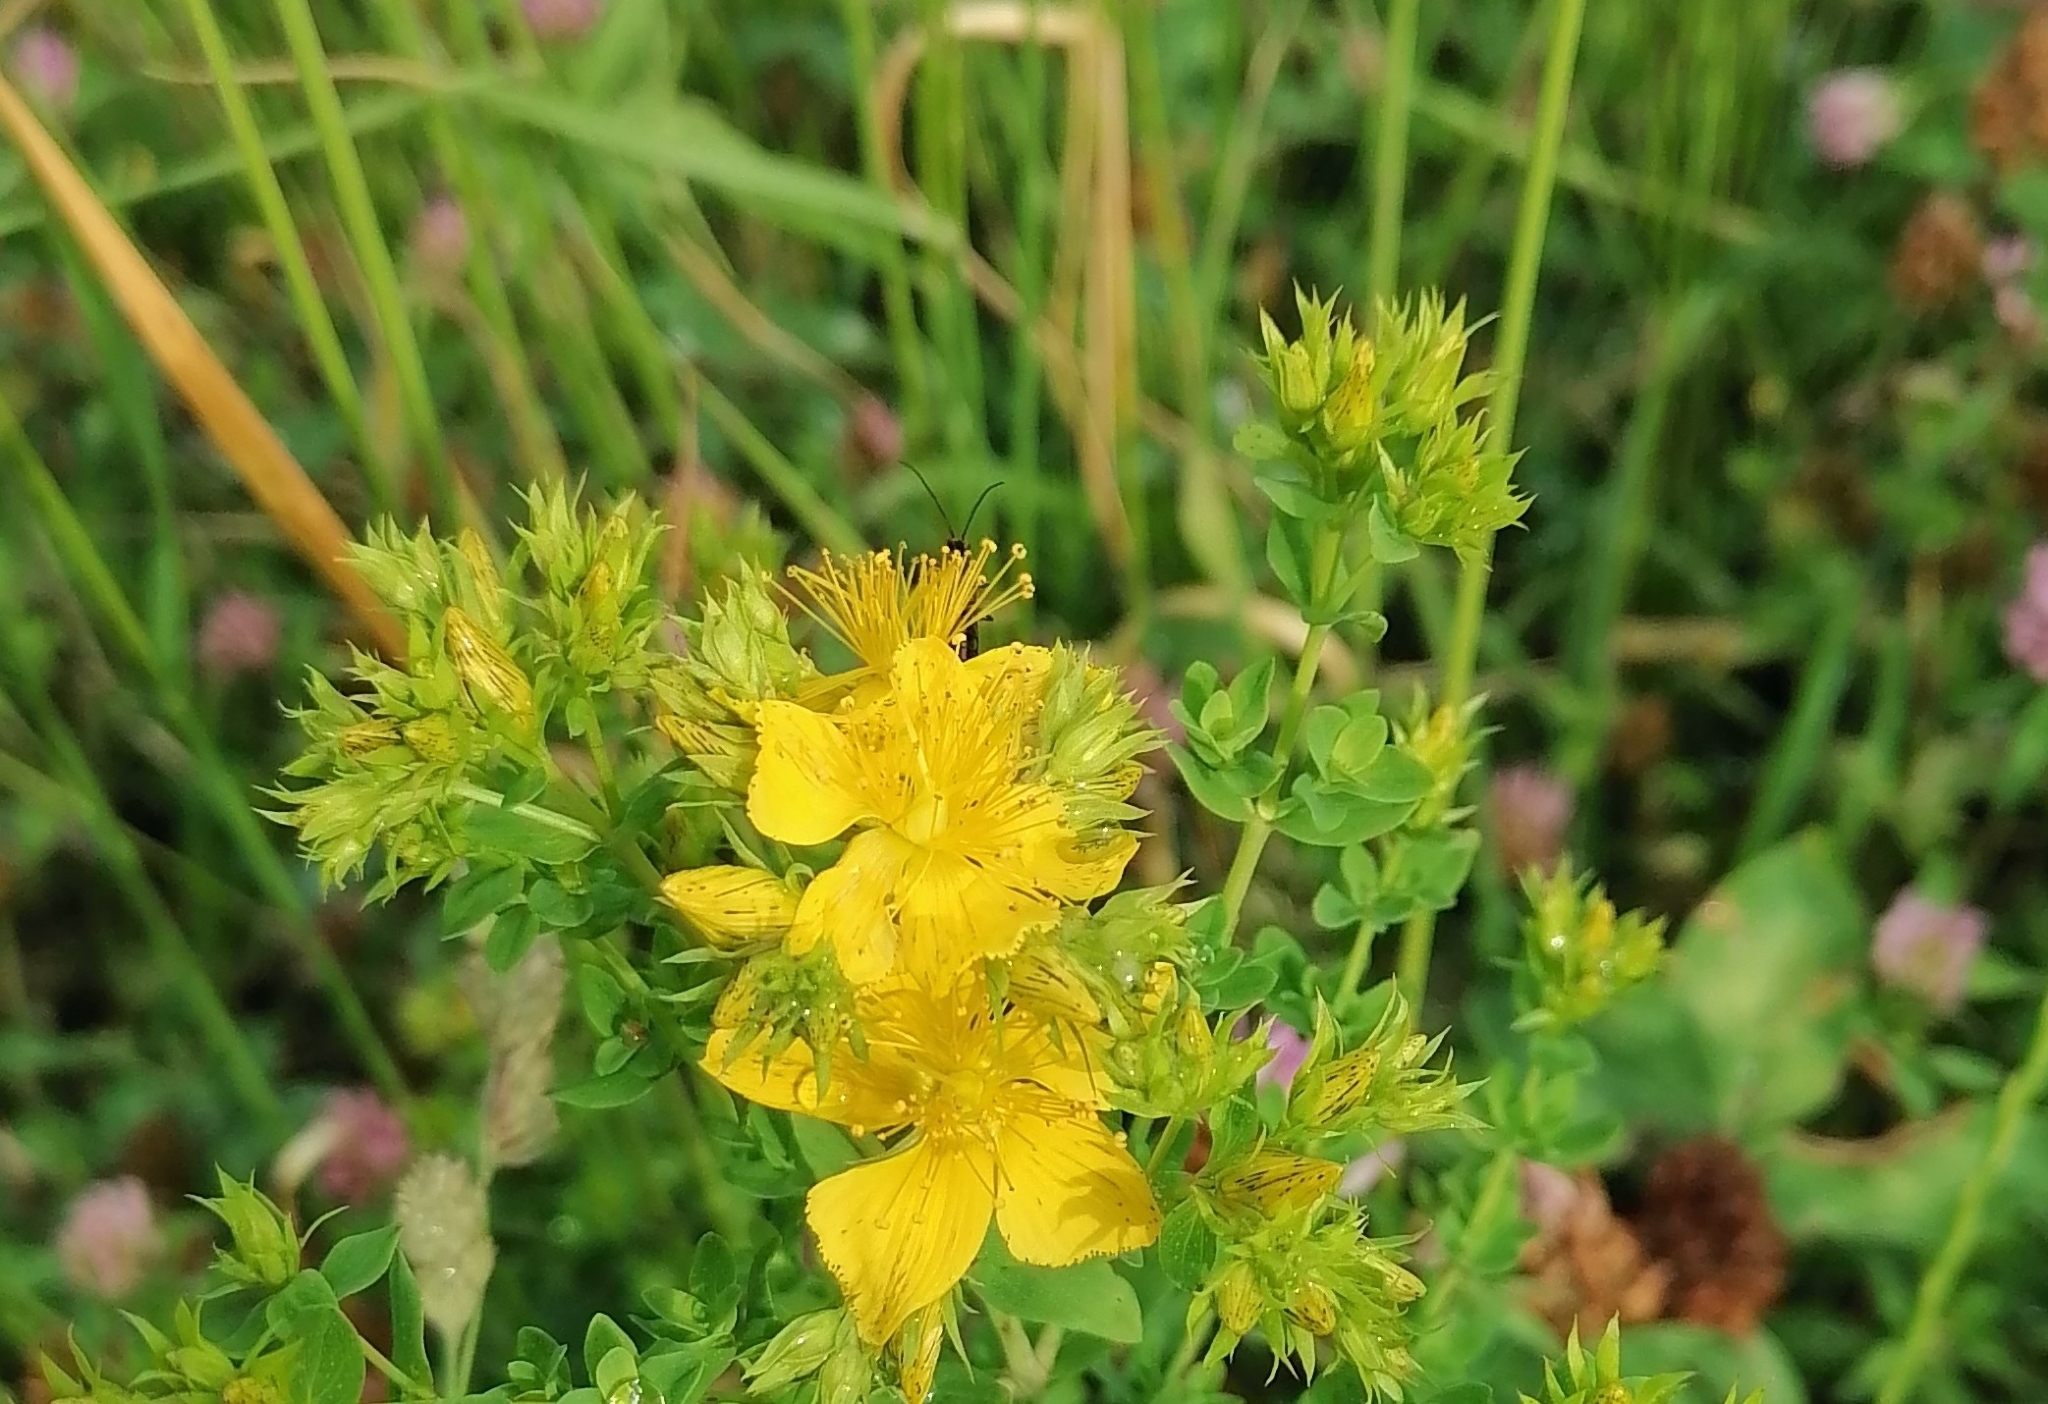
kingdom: Plantae
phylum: Tracheophyta
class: Magnoliopsida
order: Malpighiales
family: Hypericaceae
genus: Hypericum
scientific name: Hypericum perforatum
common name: Common st. johnswort
